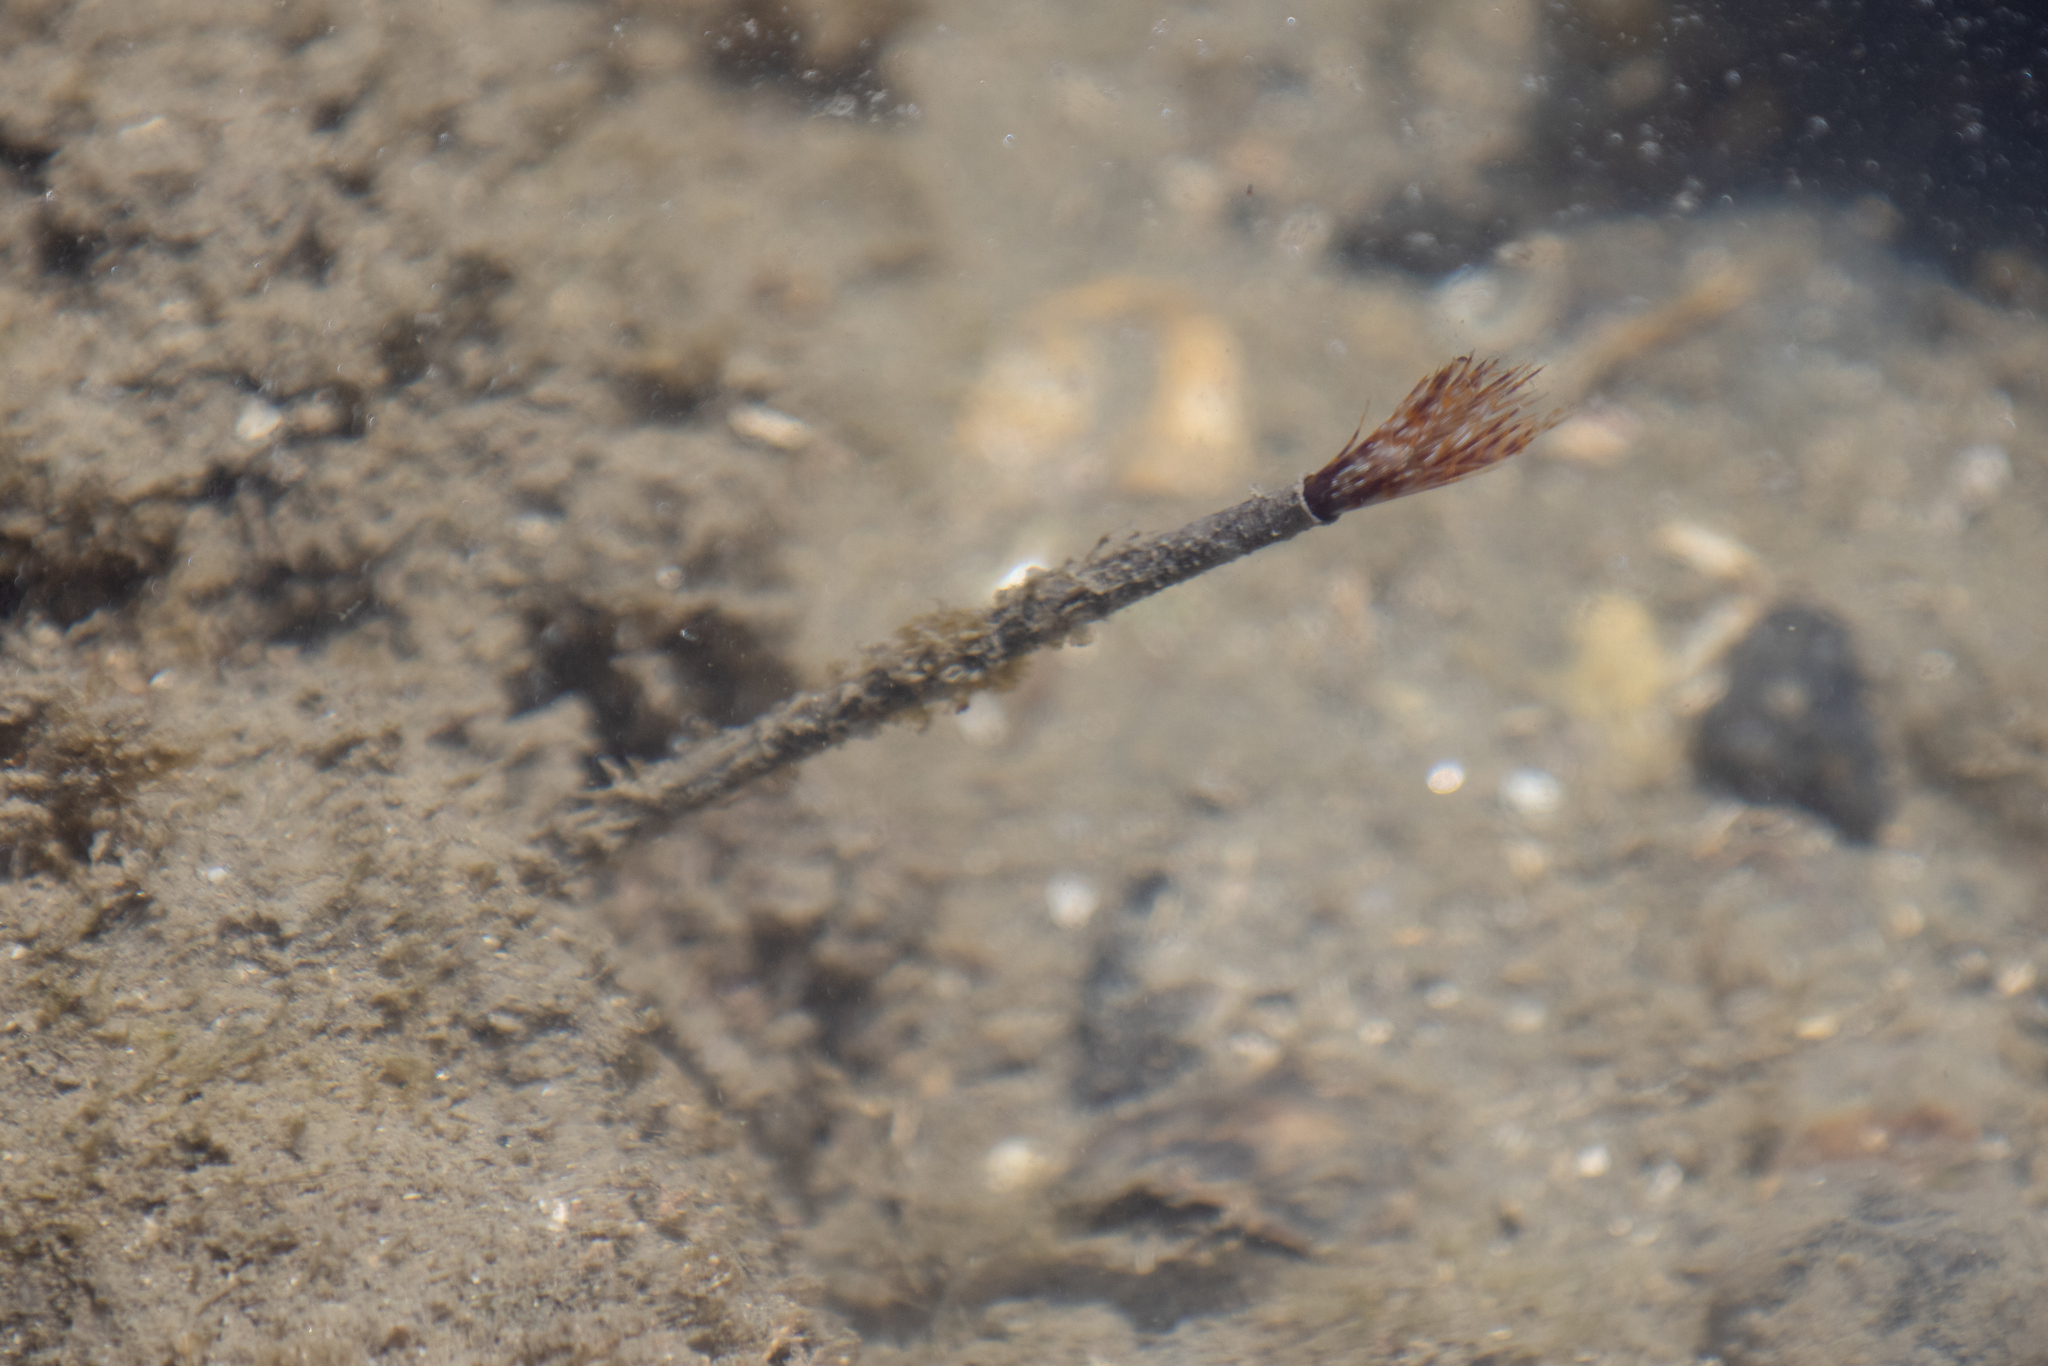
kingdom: Animalia
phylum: Annelida
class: Polychaeta
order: Sabellida
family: Sabellidae
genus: Sabella
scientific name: Sabella spallanzanii
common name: Feather duster worm
